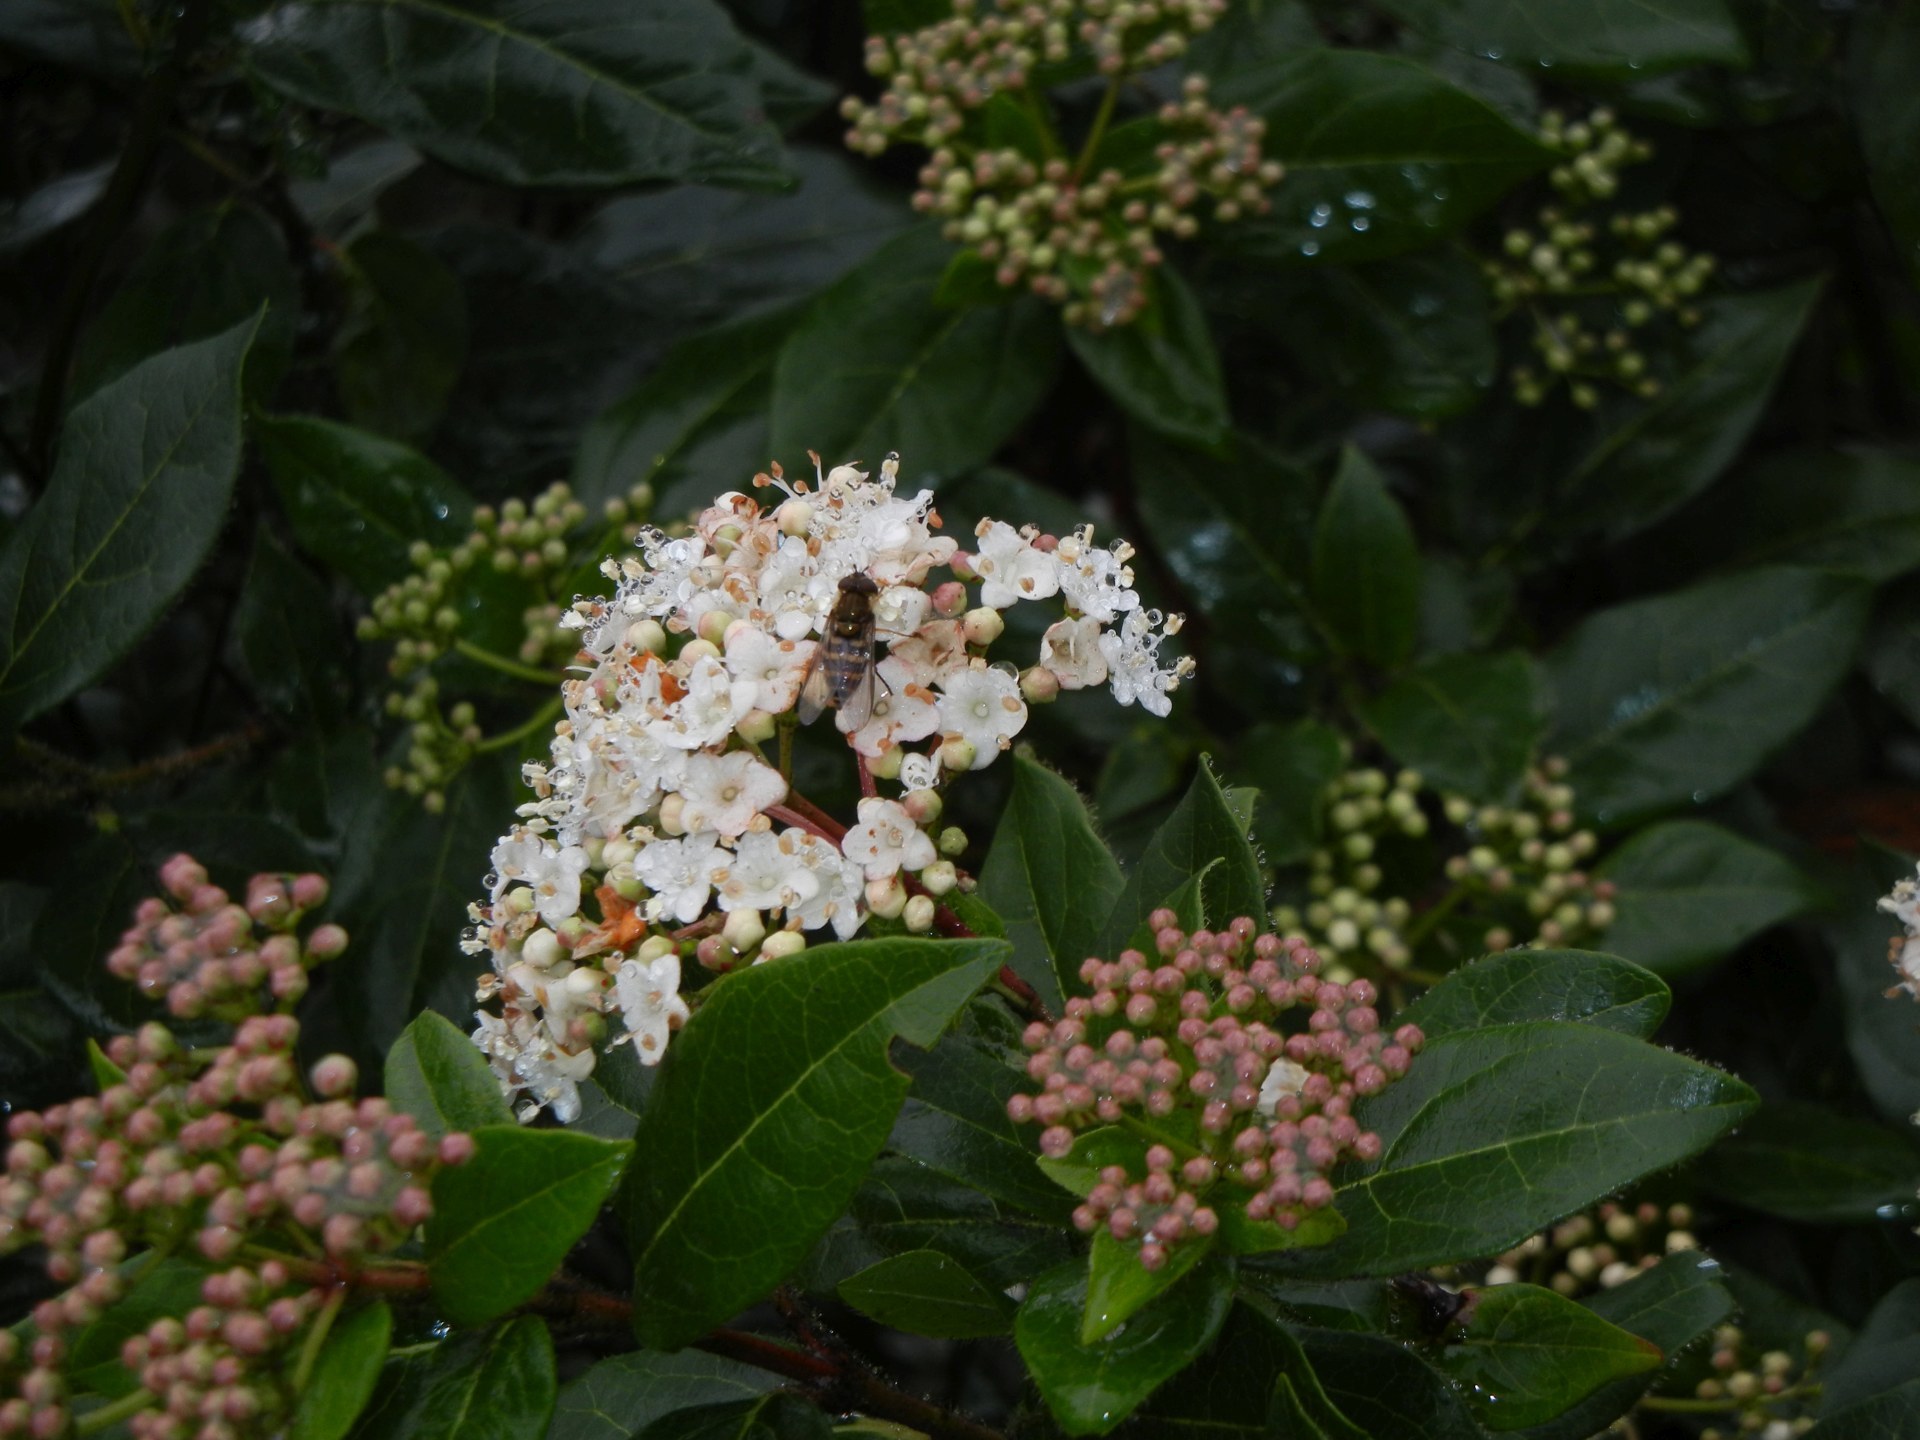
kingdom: Plantae
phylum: Tracheophyta
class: Magnoliopsida
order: Dipsacales
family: Viburnaceae
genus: Viburnum
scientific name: Viburnum tinus
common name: Laurustinus
